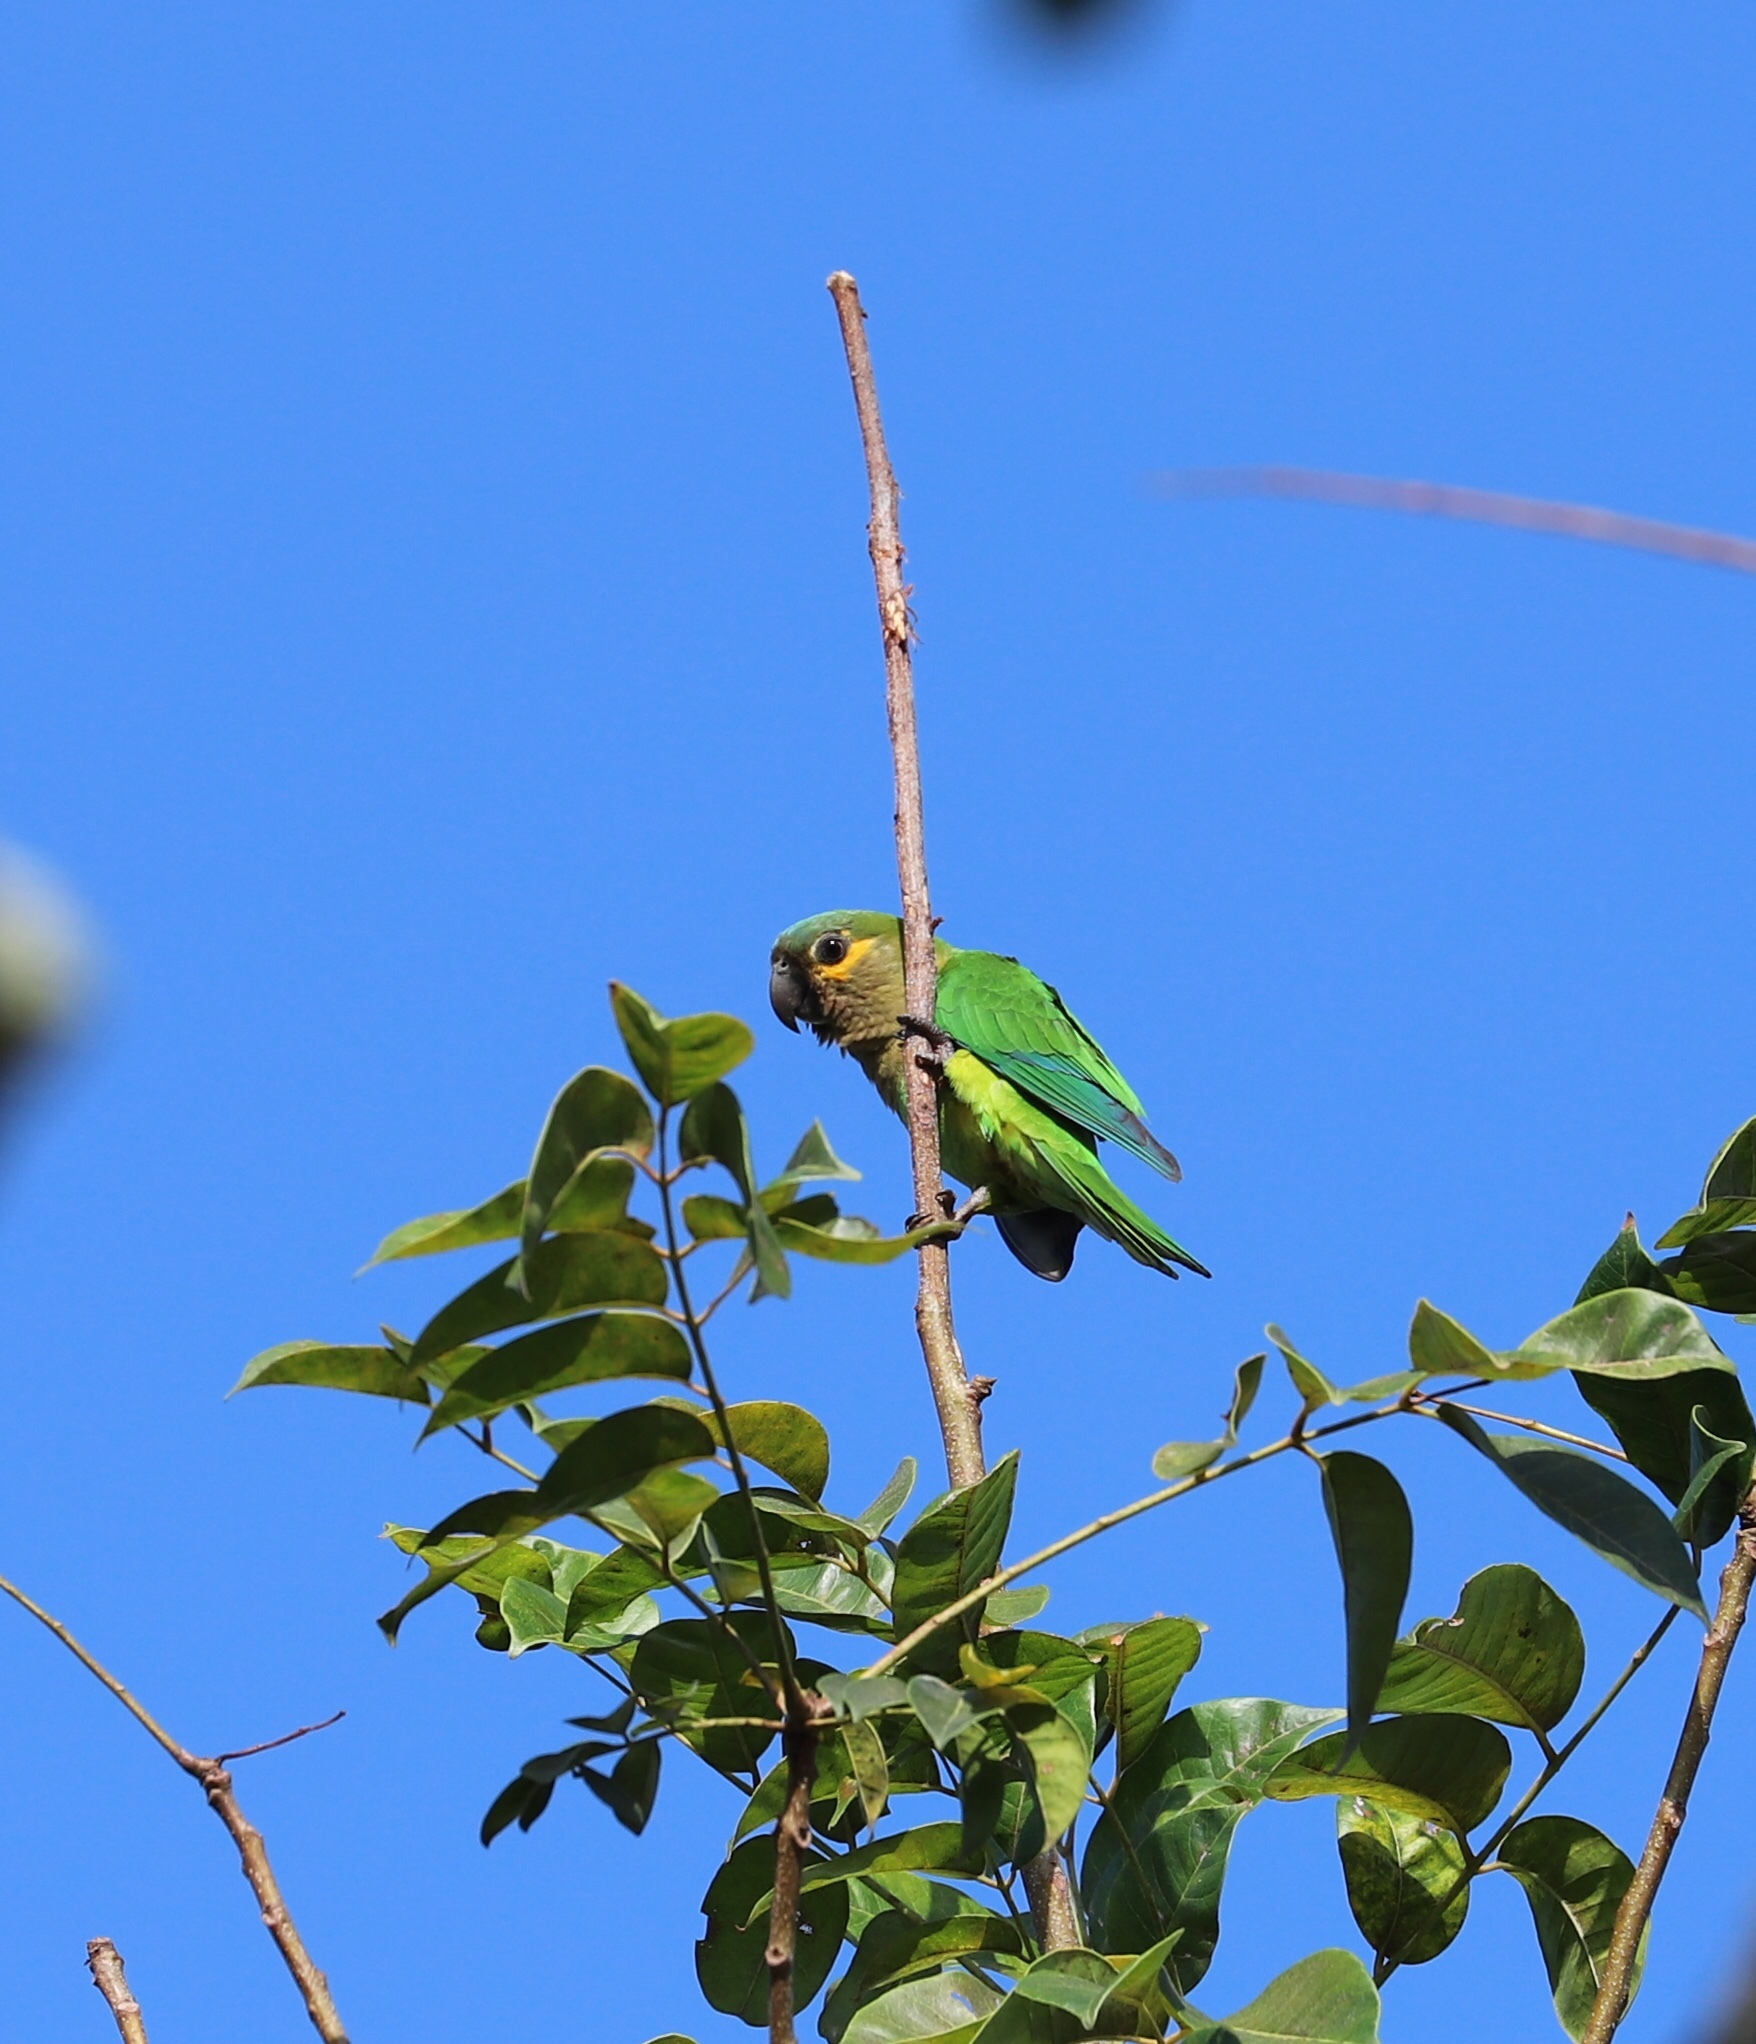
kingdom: Animalia
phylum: Chordata
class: Aves
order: Psittaciformes
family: Psittacidae
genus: Aratinga
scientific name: Aratinga pertinax
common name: Brown-throated parakeet
